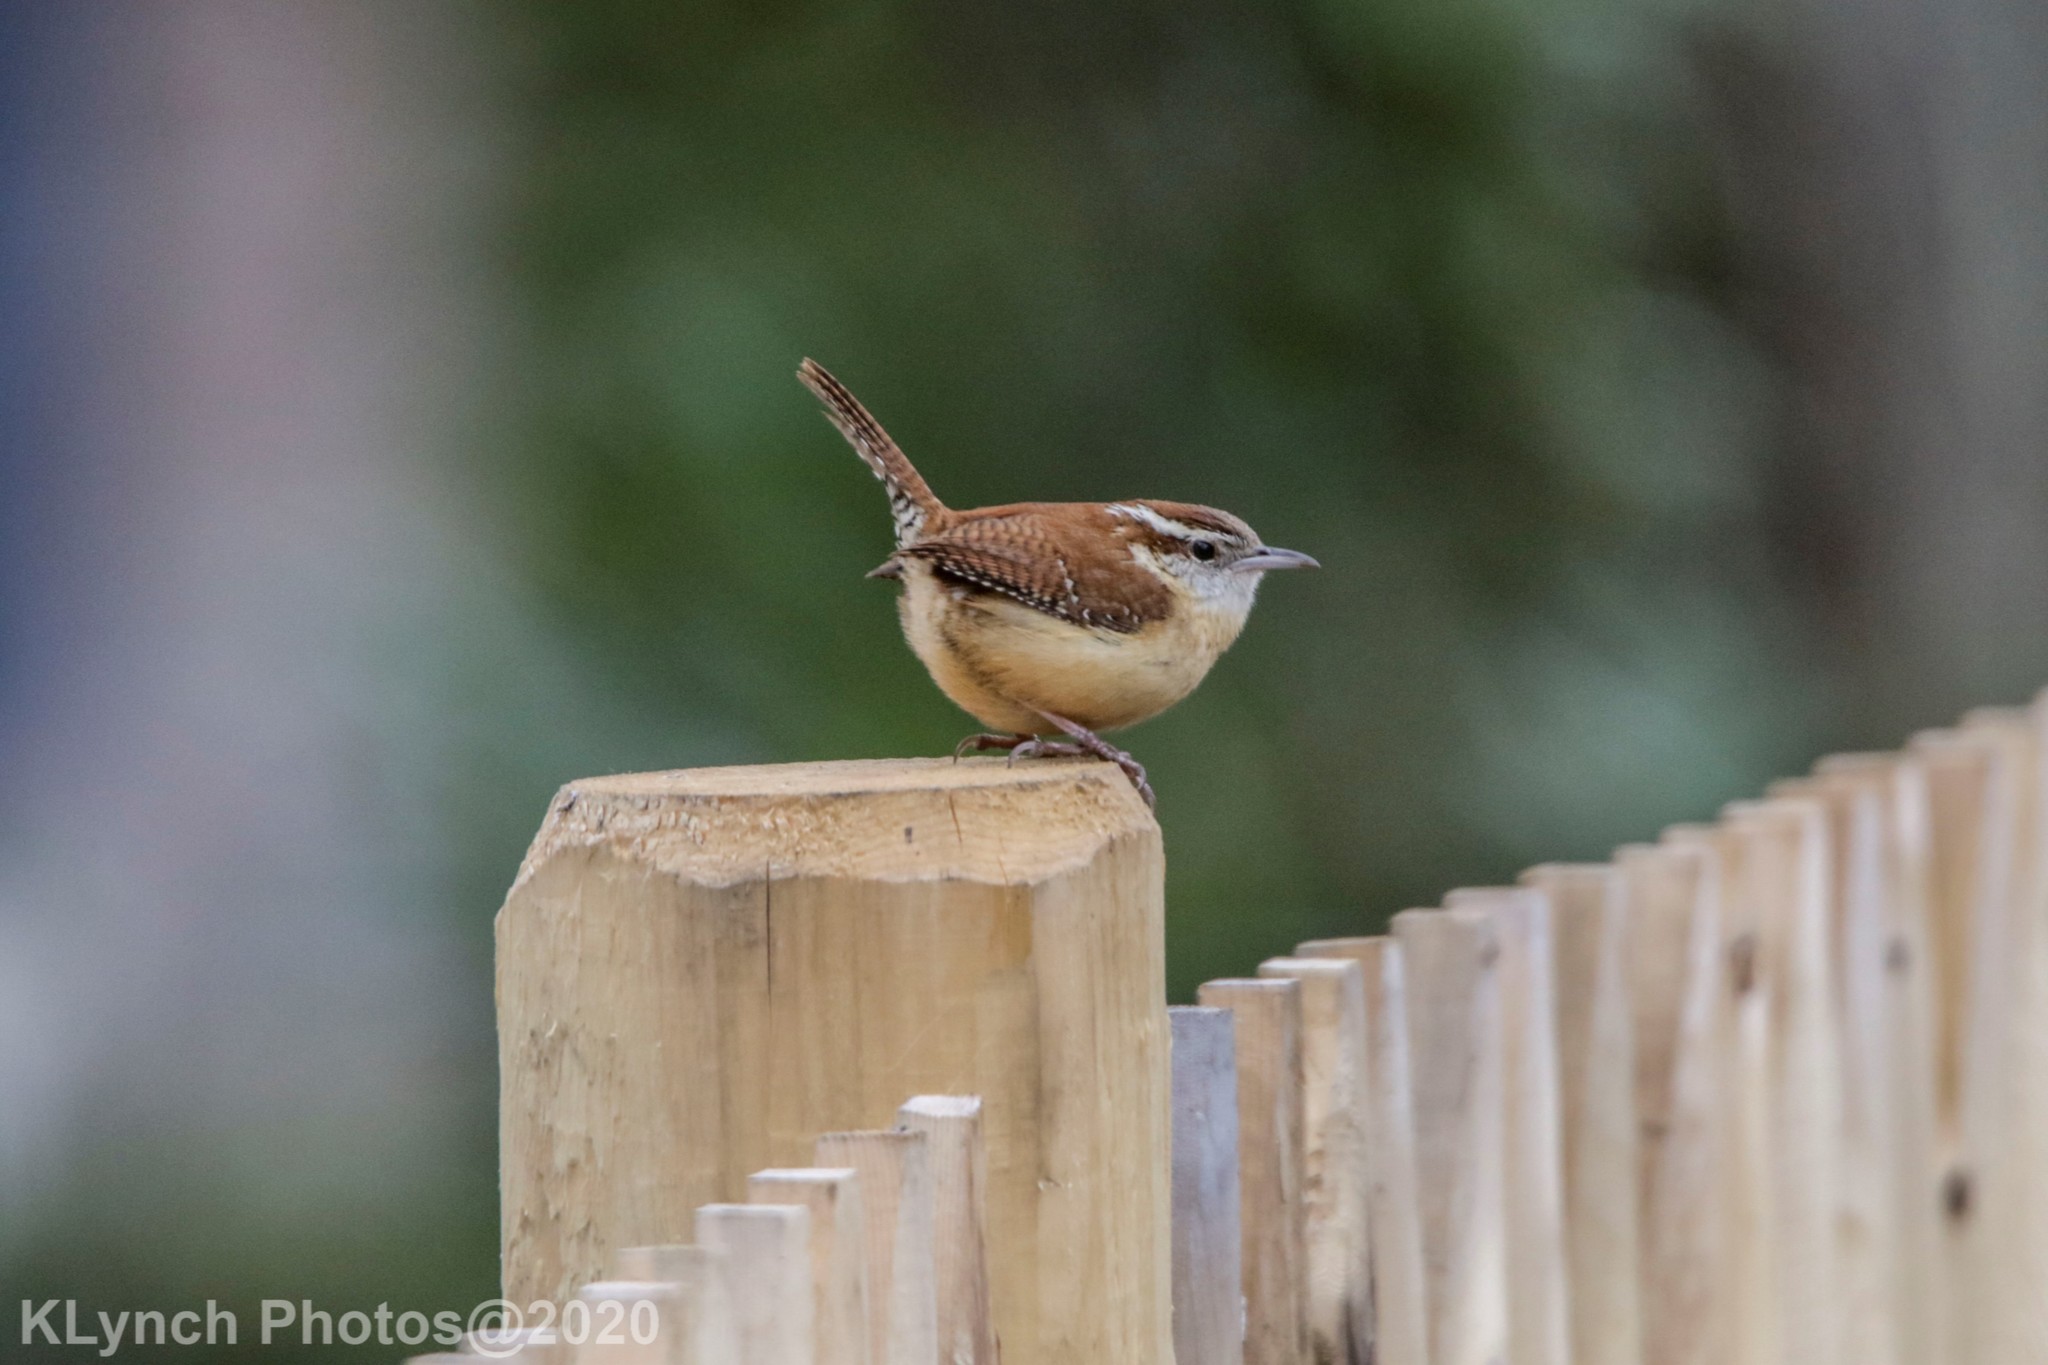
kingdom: Animalia
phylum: Chordata
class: Aves
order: Passeriformes
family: Troglodytidae
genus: Thryothorus
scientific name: Thryothorus ludovicianus
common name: Carolina wren
